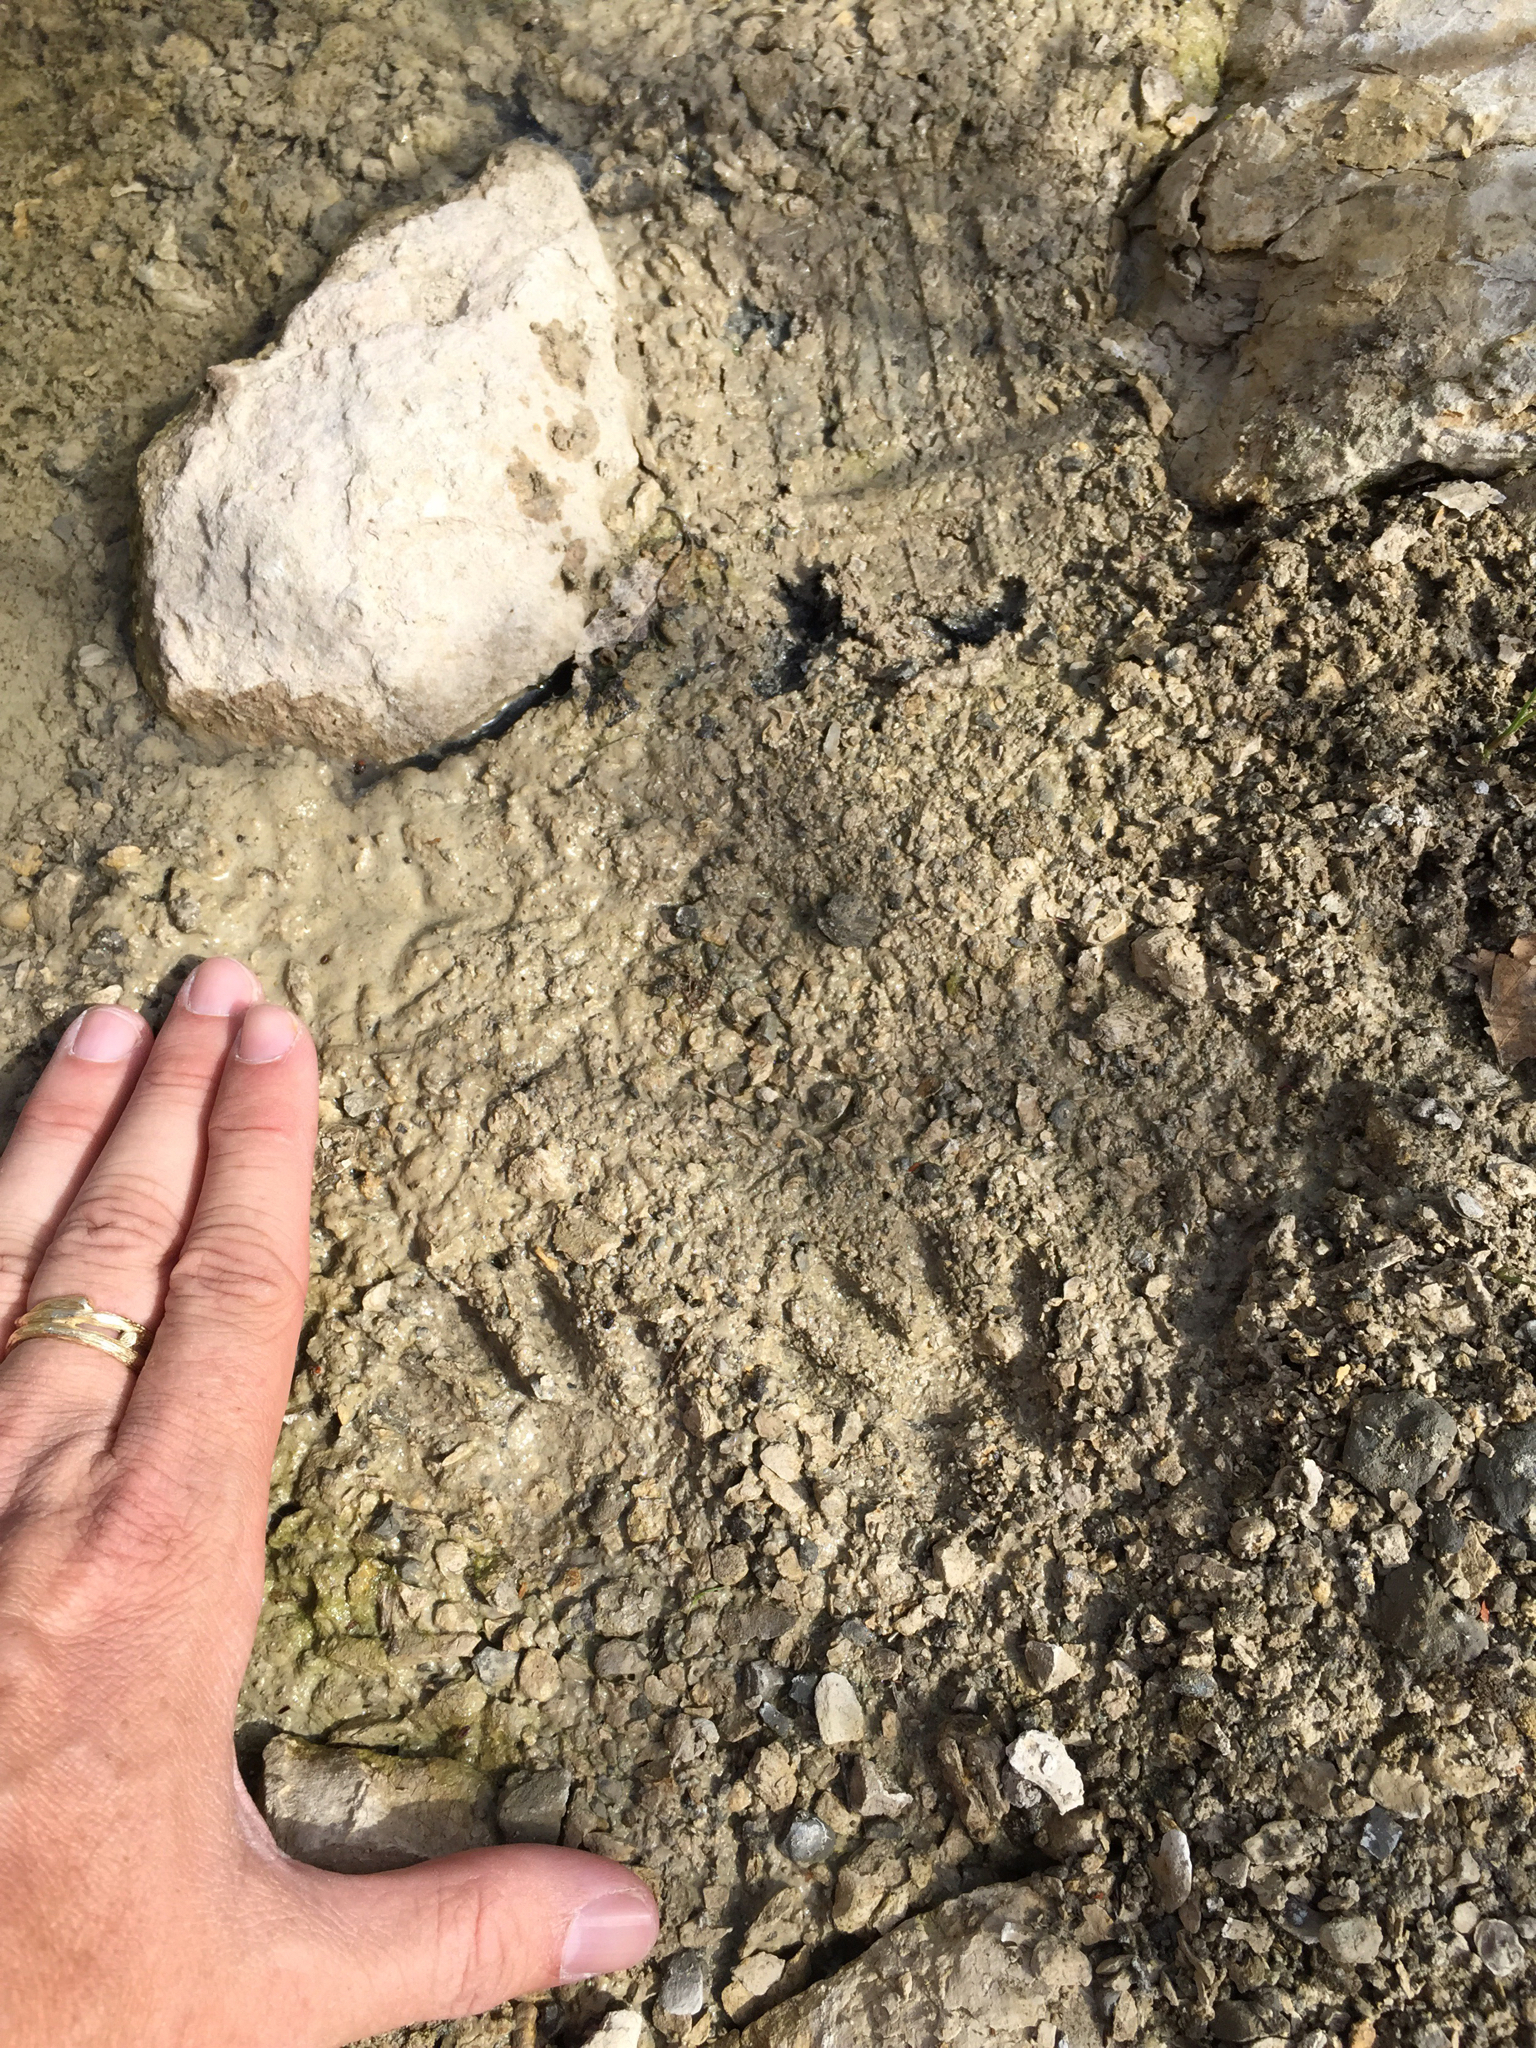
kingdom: Animalia
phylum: Chordata
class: Mammalia
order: Carnivora
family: Procyonidae
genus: Procyon
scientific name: Procyon lotor
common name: Raccoon
